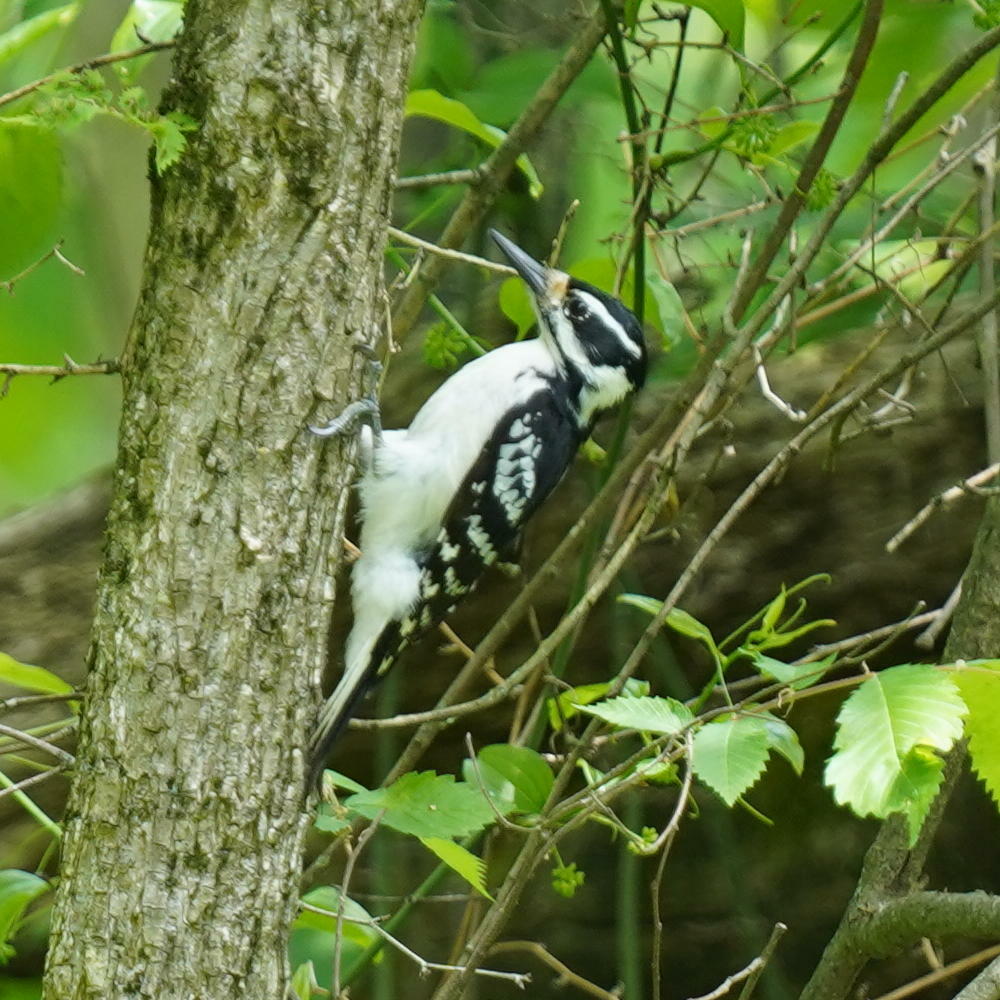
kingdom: Animalia
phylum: Chordata
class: Aves
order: Piciformes
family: Picidae
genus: Leuconotopicus
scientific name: Leuconotopicus villosus
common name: Hairy woodpecker
